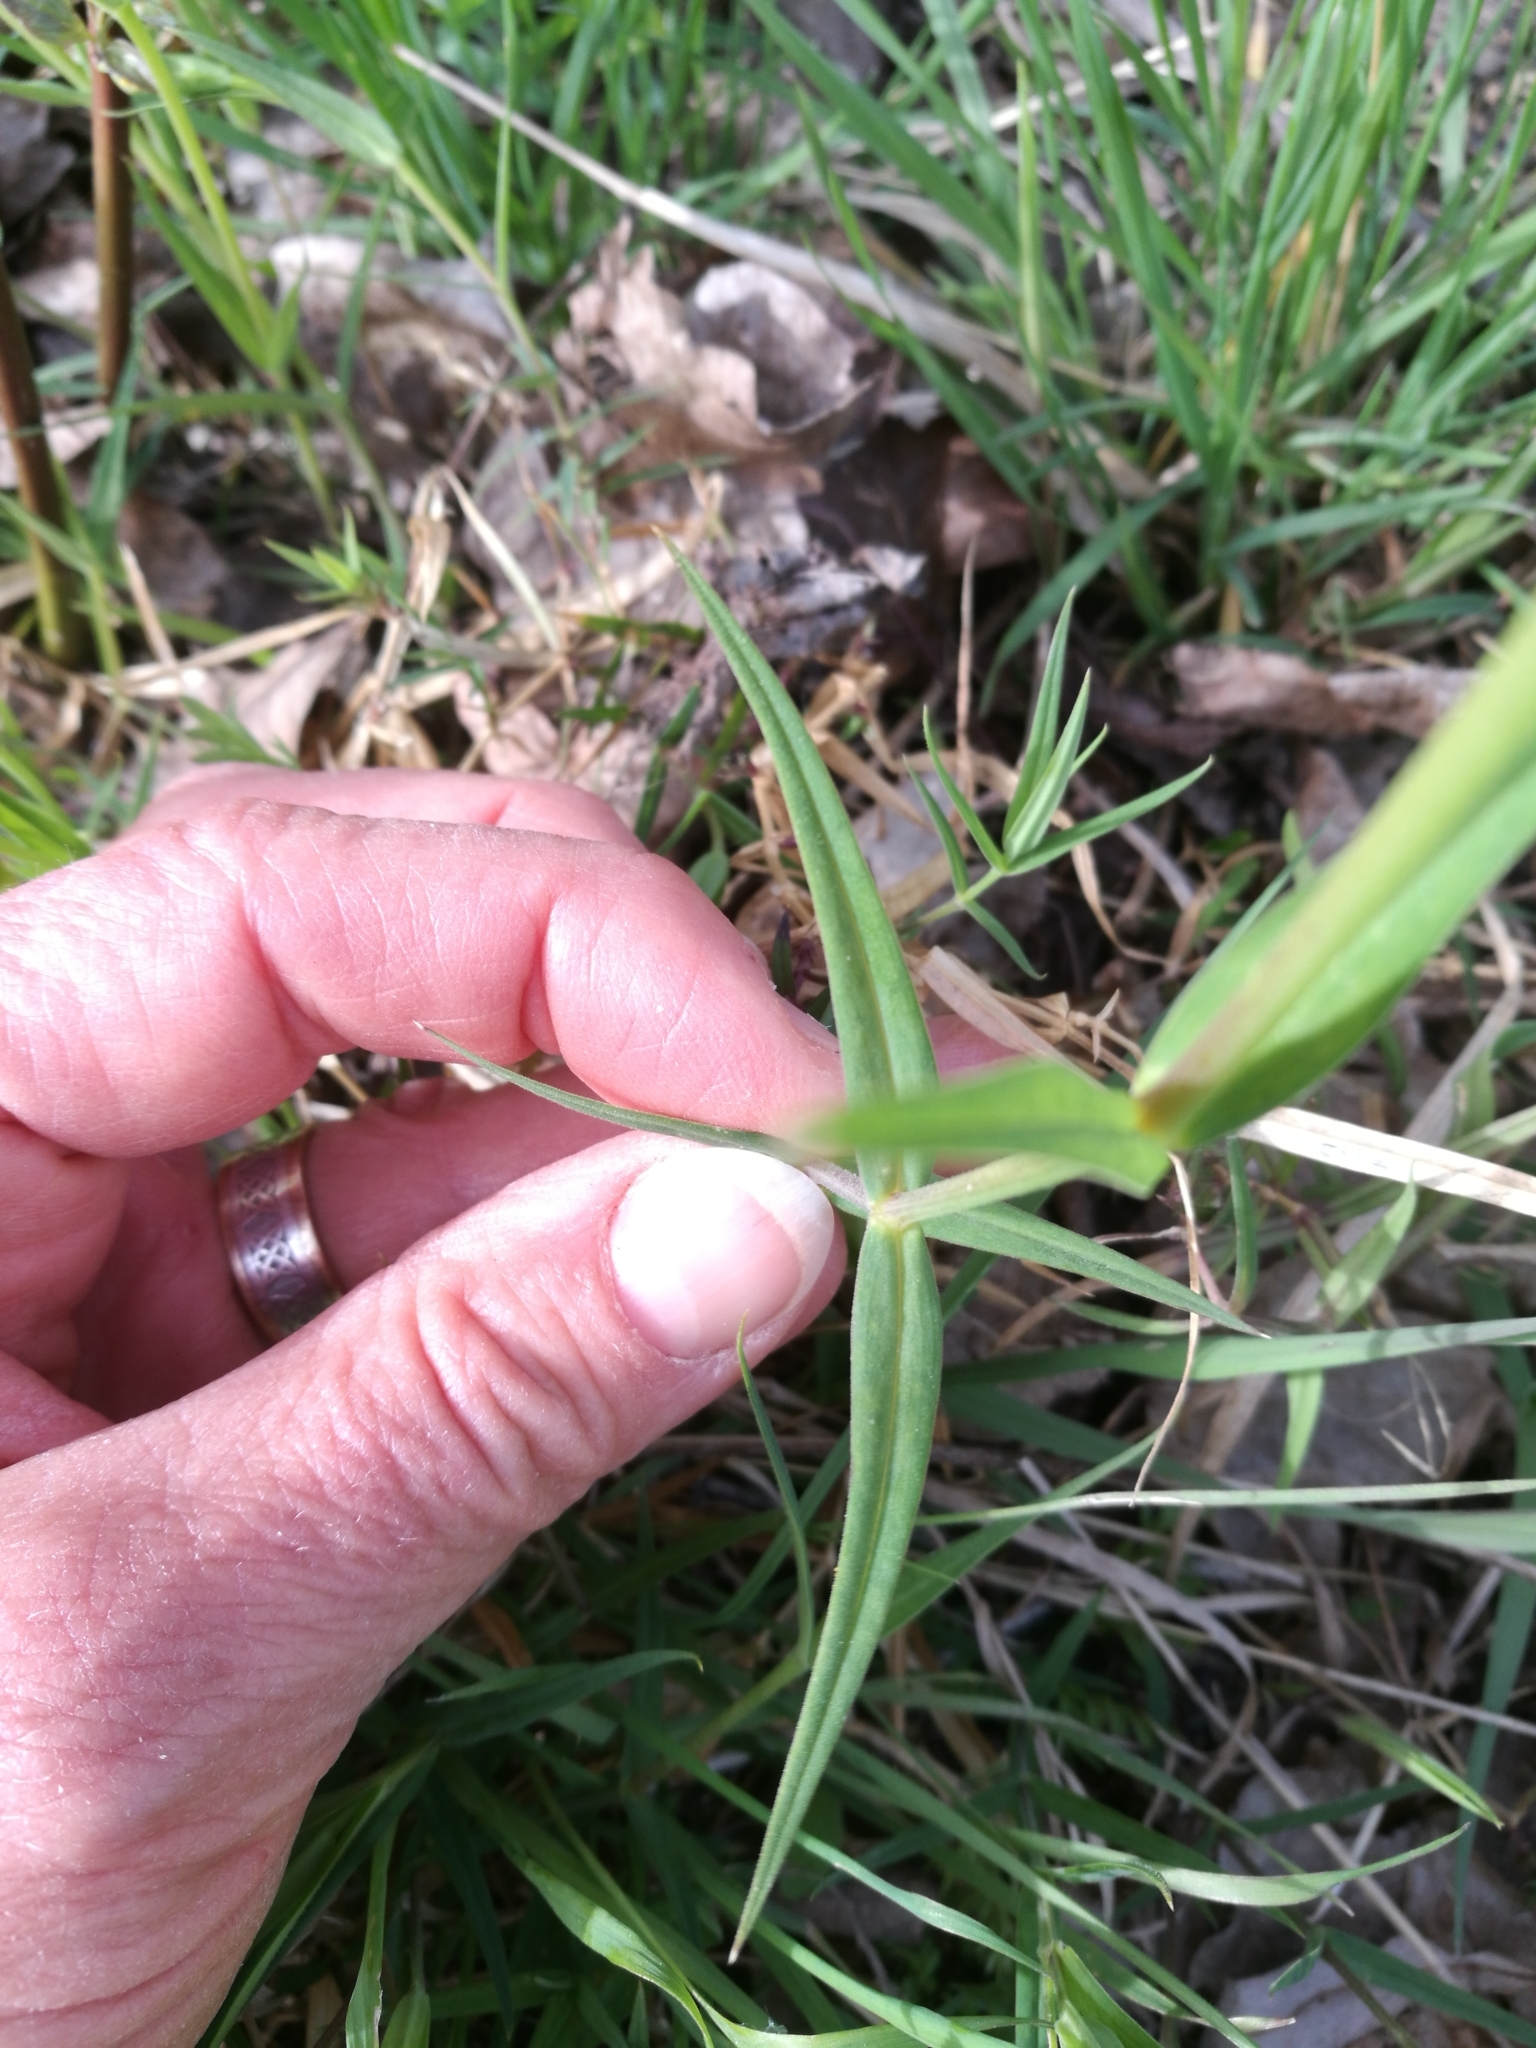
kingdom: Plantae
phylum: Tracheophyta
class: Magnoliopsida
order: Caryophyllales
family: Caryophyllaceae
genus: Rabelera
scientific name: Rabelera holostea
